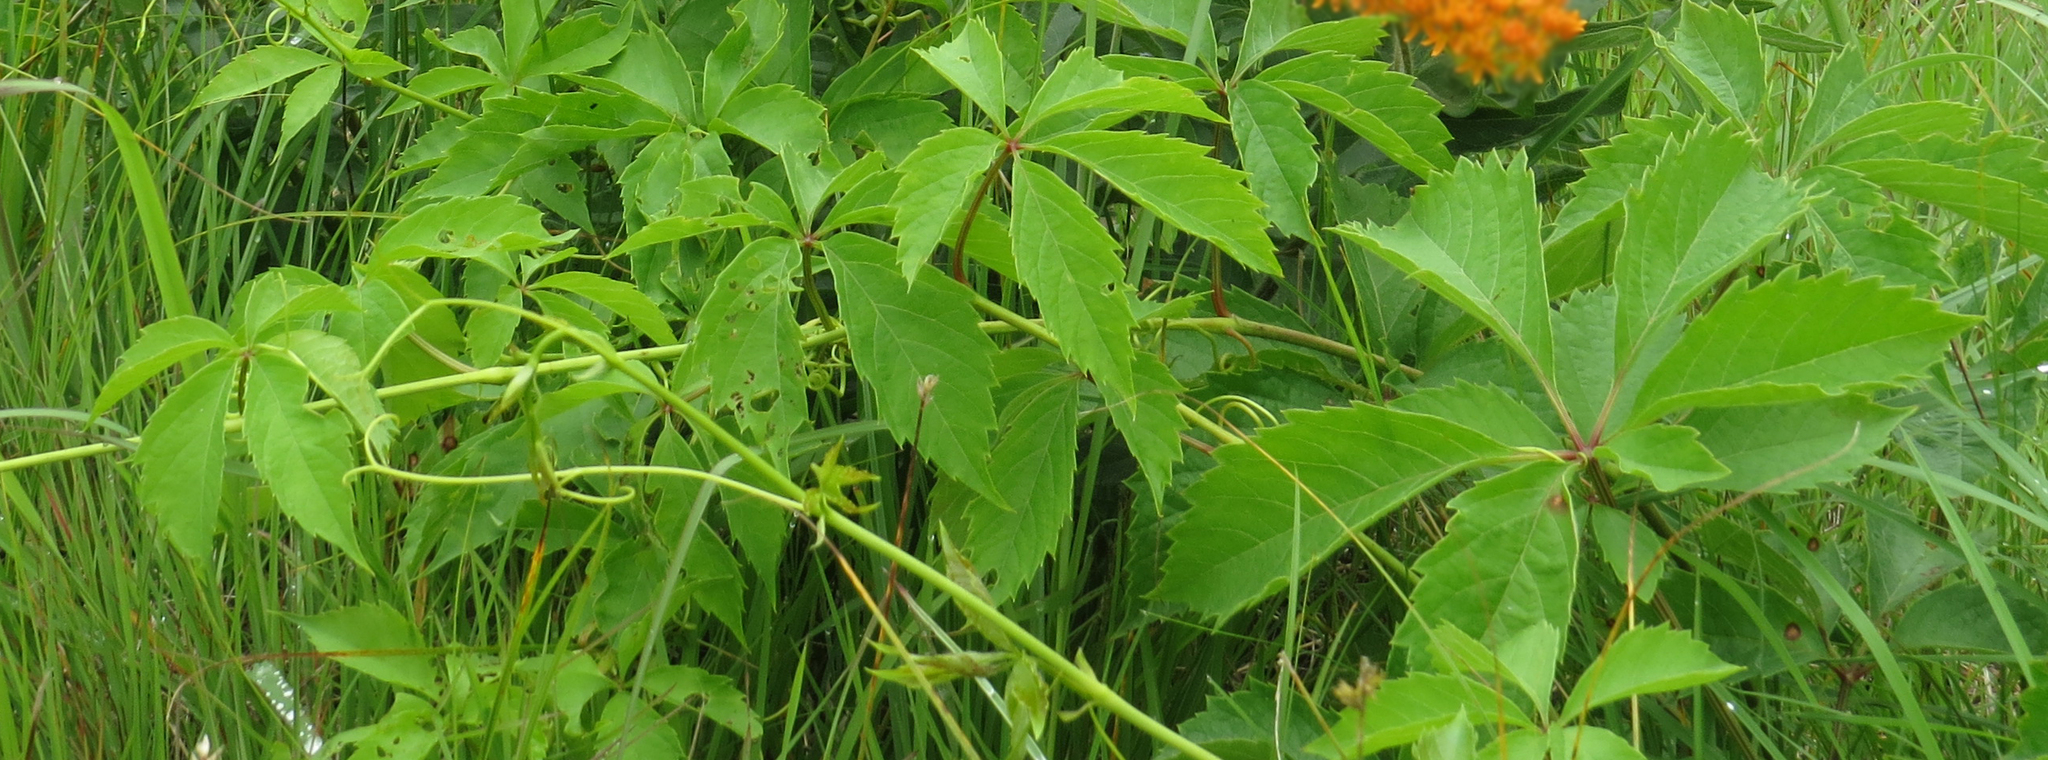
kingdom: Plantae
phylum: Tracheophyta
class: Magnoliopsida
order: Vitales
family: Vitaceae
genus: Parthenocissus
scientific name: Parthenocissus quinquefolia
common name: Virginia-creeper
